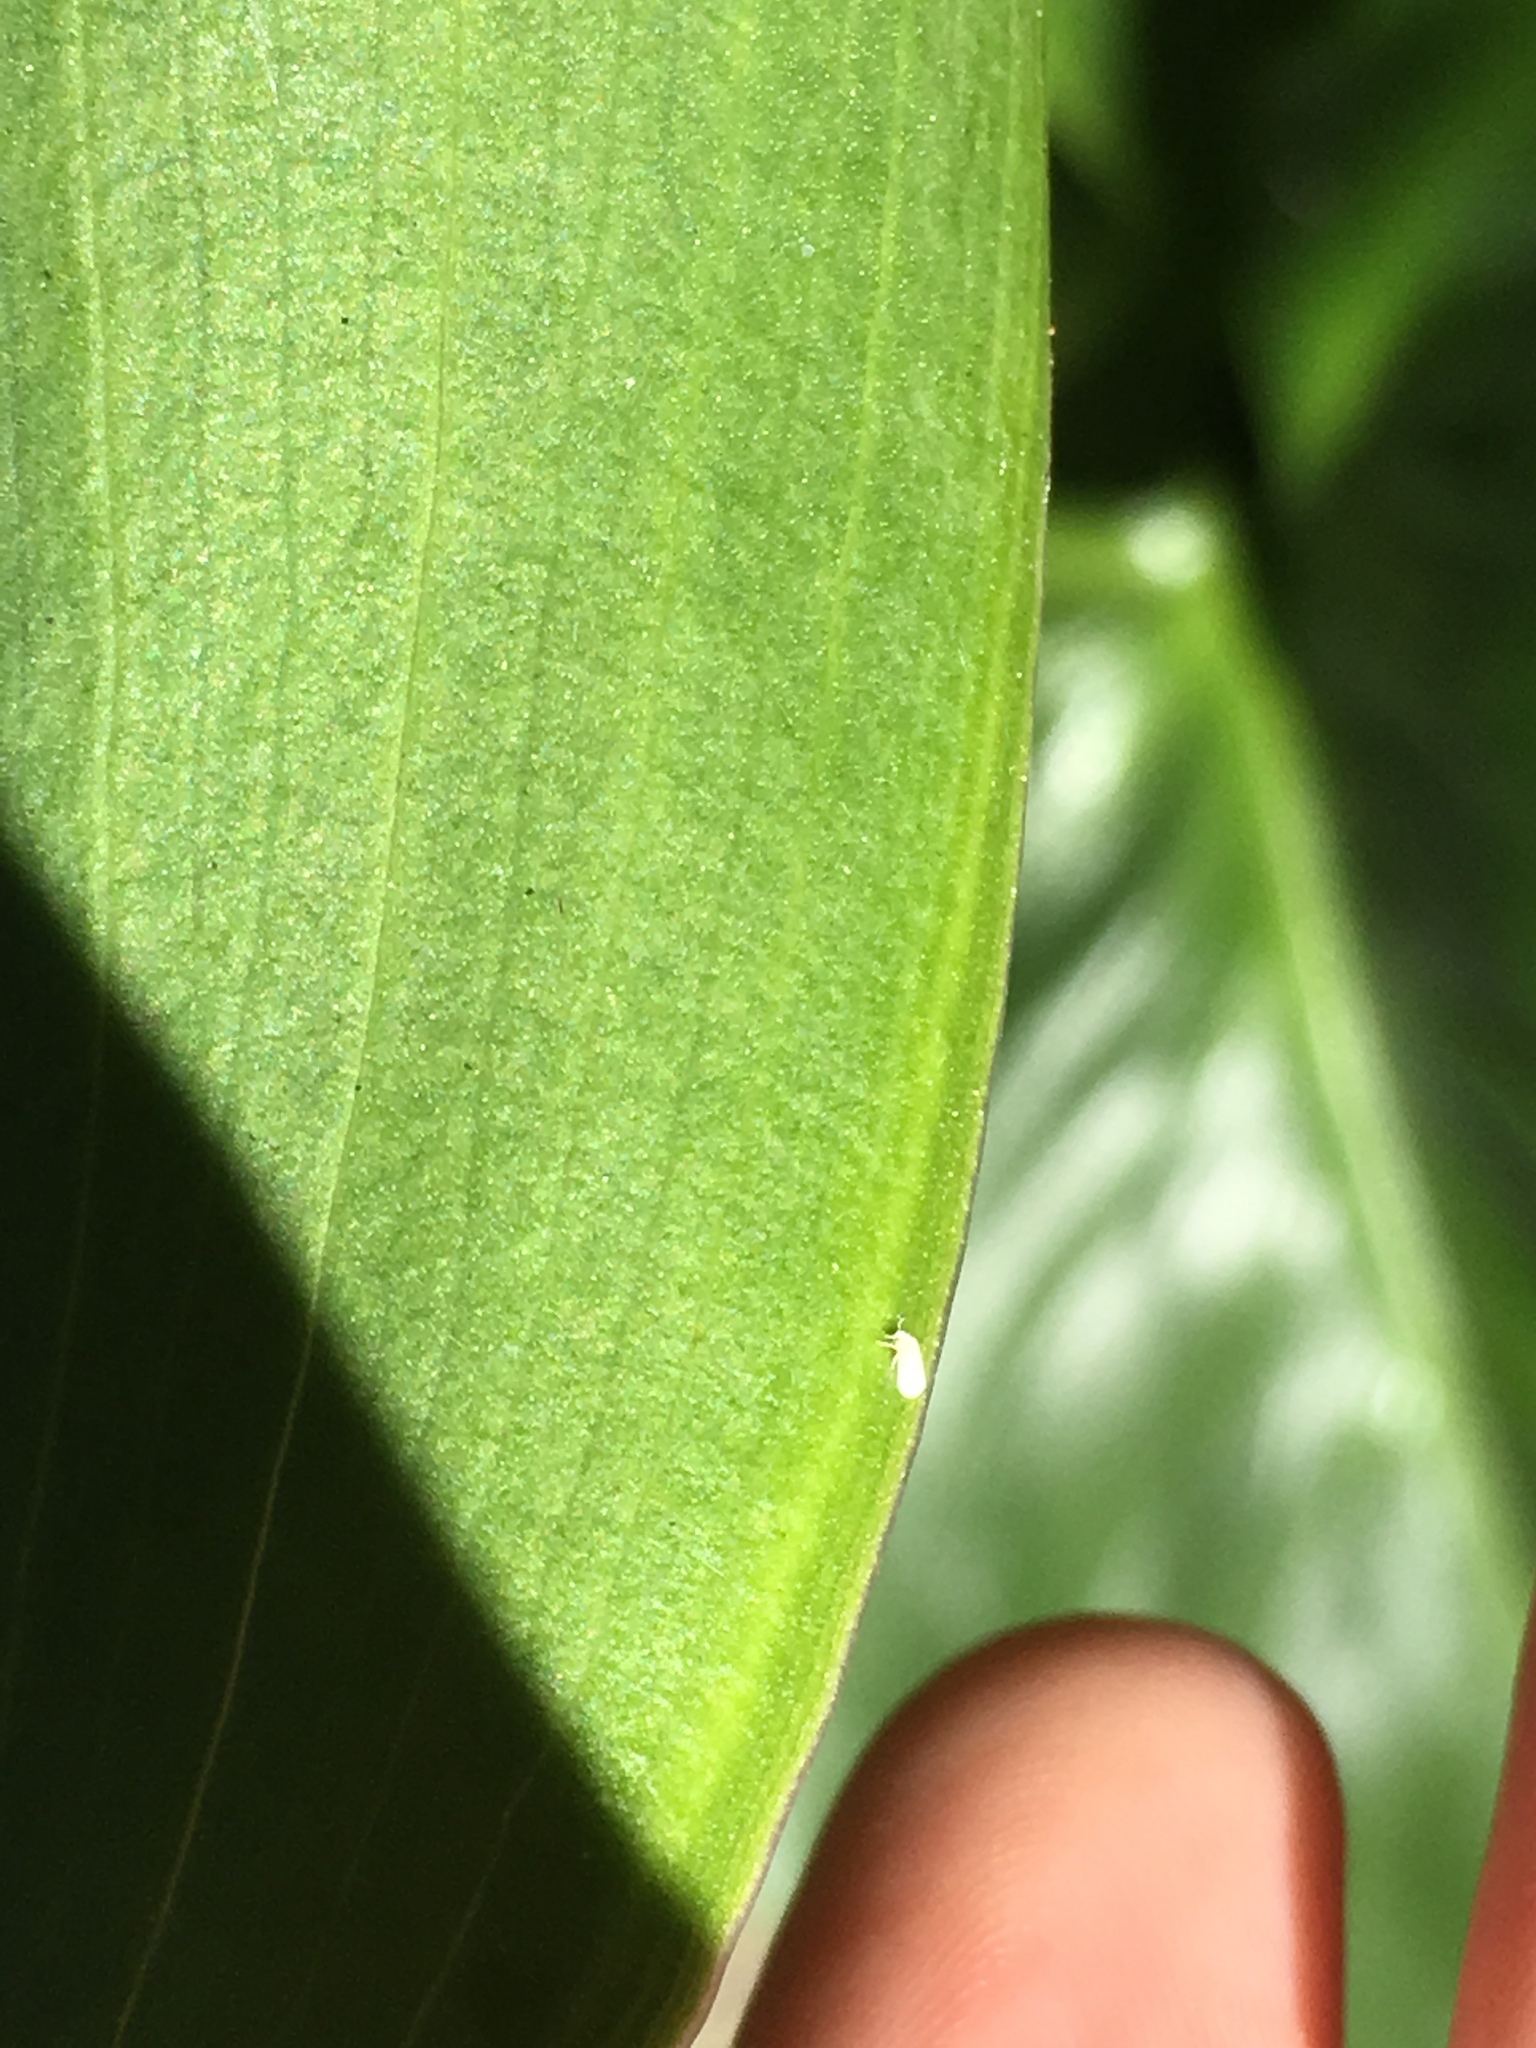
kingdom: Animalia
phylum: Arthropoda
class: Insecta
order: Hemiptera
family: Aleyrodidae
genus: Orchamoplatus
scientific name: Orchamoplatus citri
